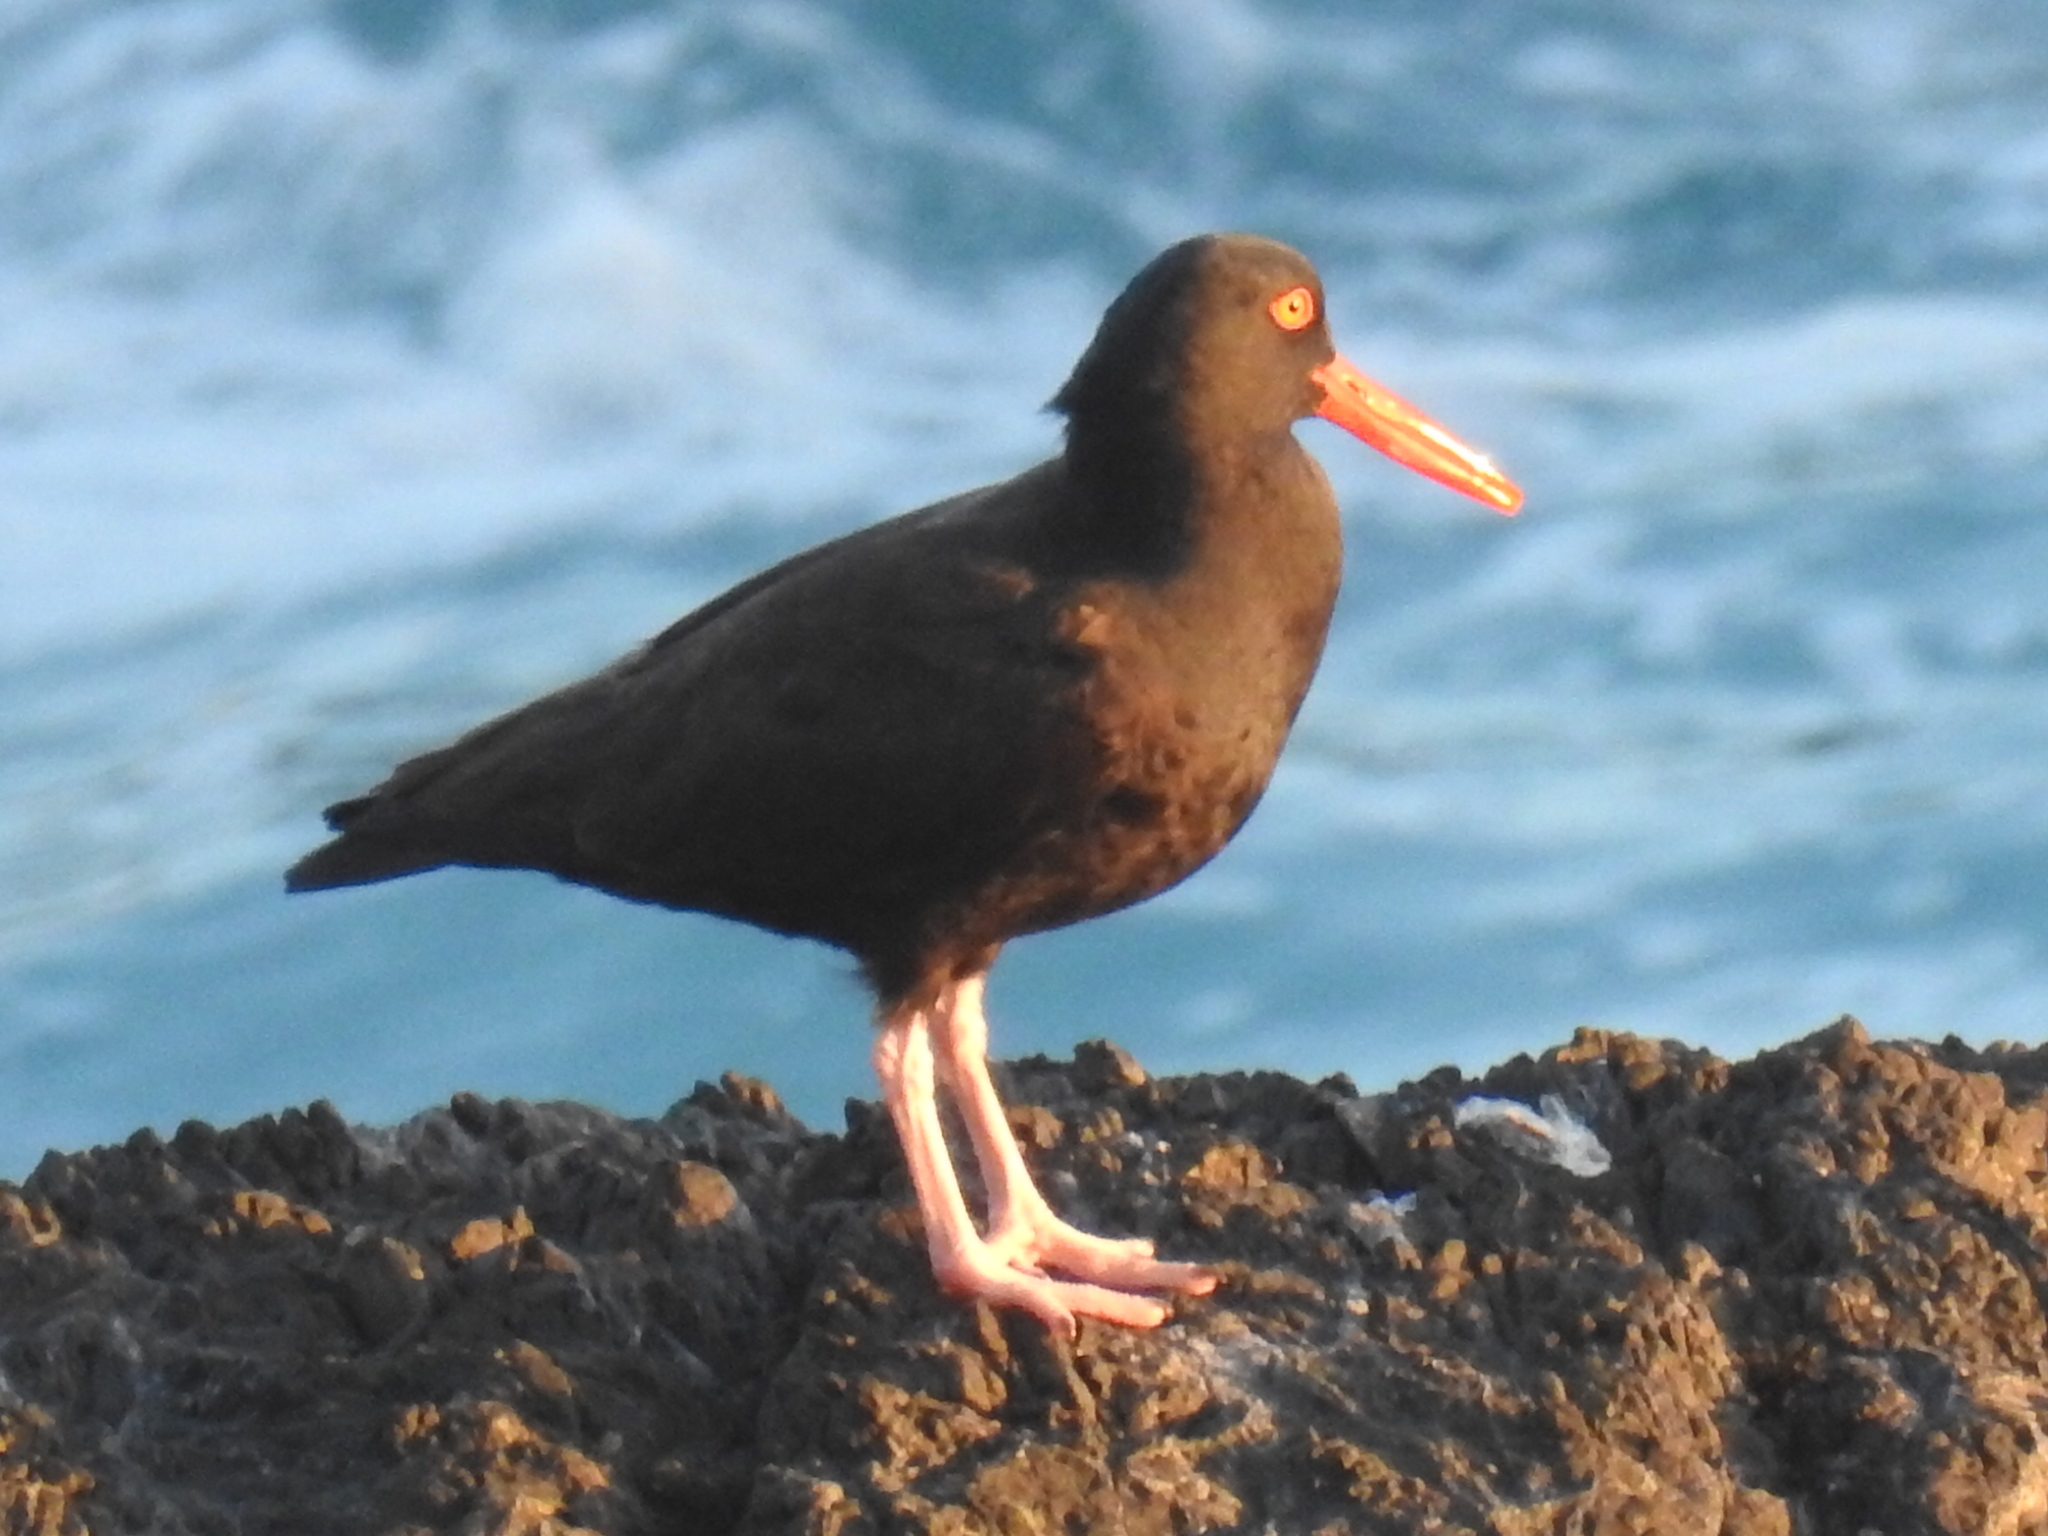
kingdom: Animalia
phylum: Chordata
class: Aves
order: Charadriiformes
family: Haematopodidae
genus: Haematopus
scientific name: Haematopus bachmani
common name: Black oystercatcher
